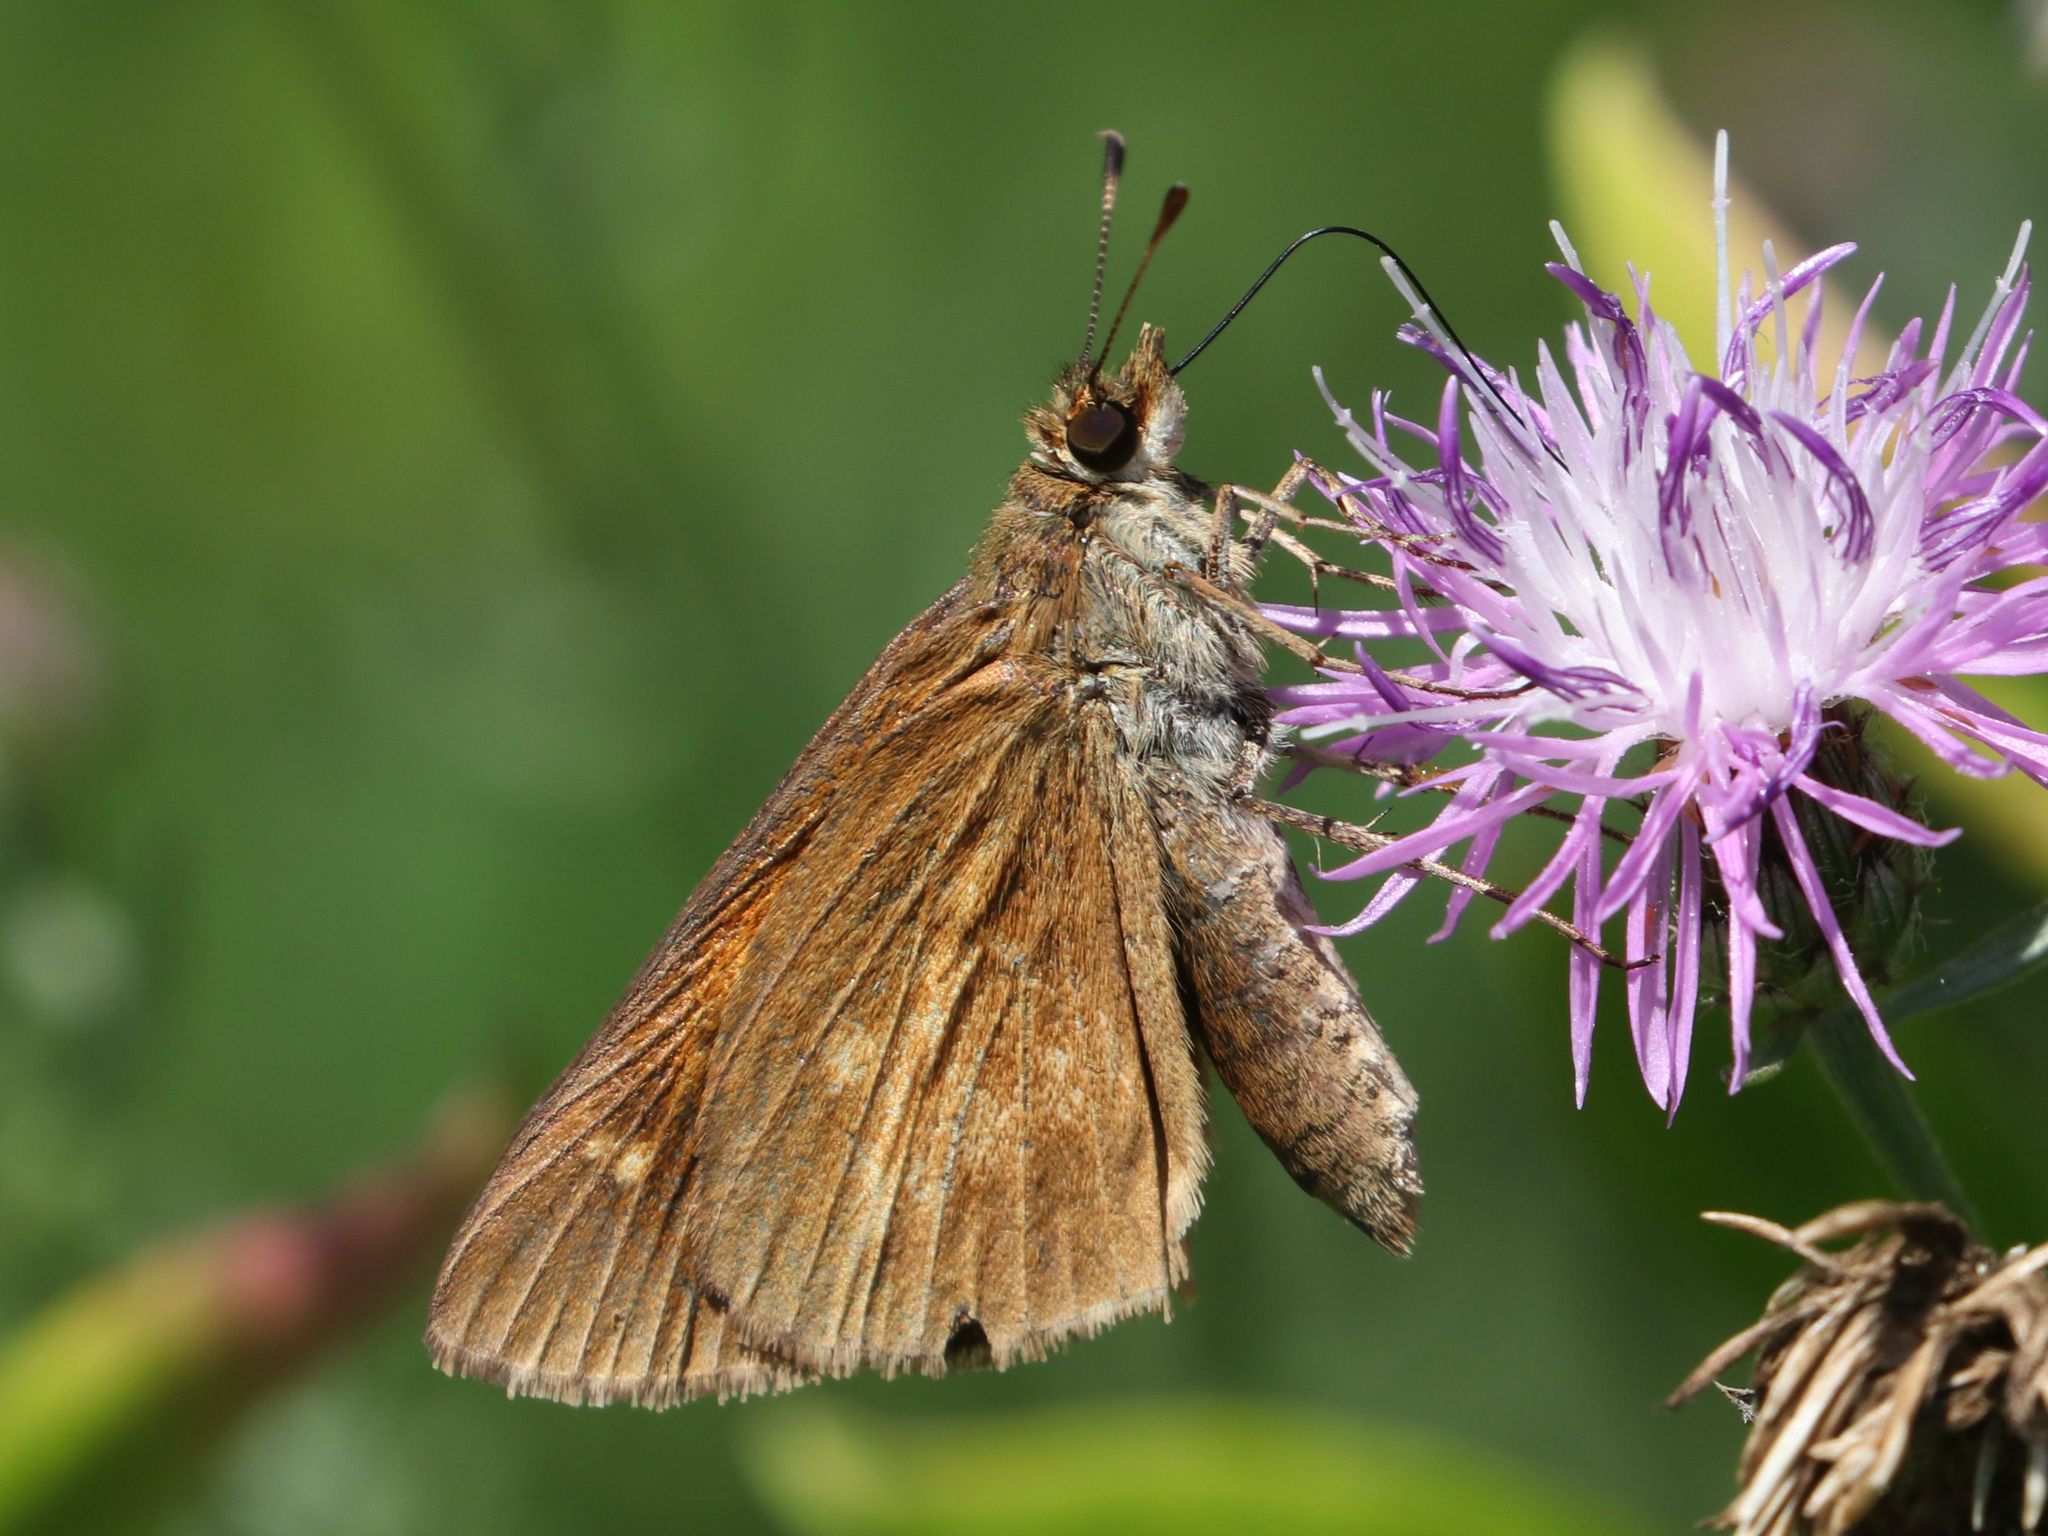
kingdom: Animalia
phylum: Arthropoda
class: Insecta
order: Lepidoptera
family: Hesperiidae
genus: Poanes
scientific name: Poanes viator
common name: Broad-winged skipper
